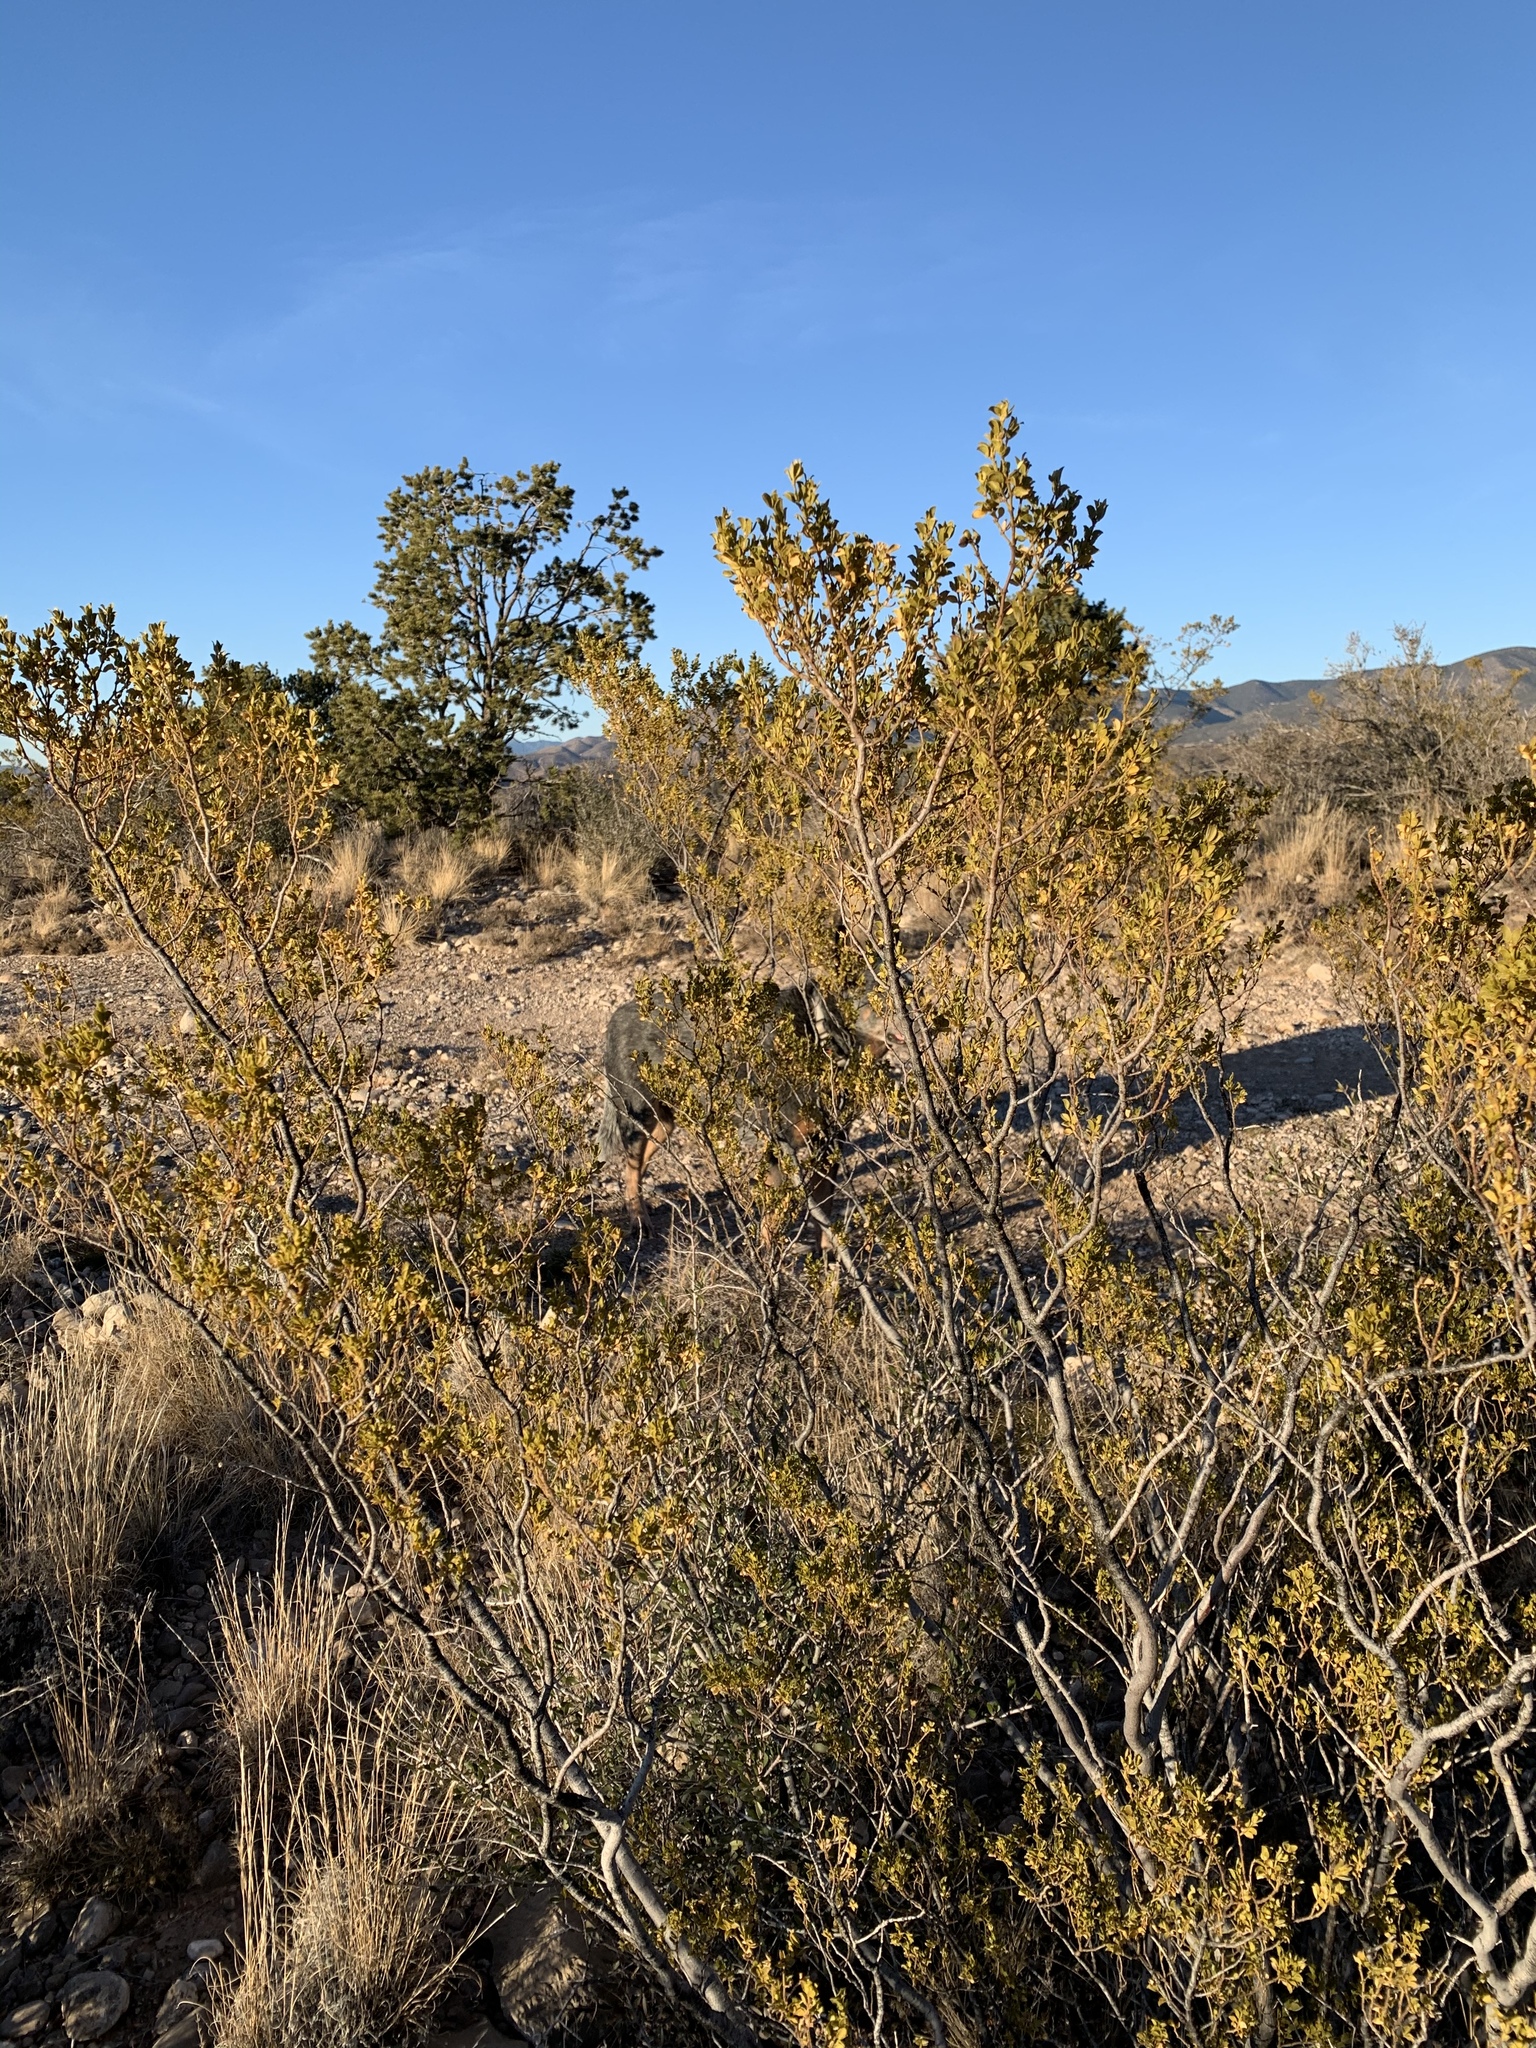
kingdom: Plantae
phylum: Tracheophyta
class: Magnoliopsida
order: Zygophyllales
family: Zygophyllaceae
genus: Larrea
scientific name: Larrea tridentata
